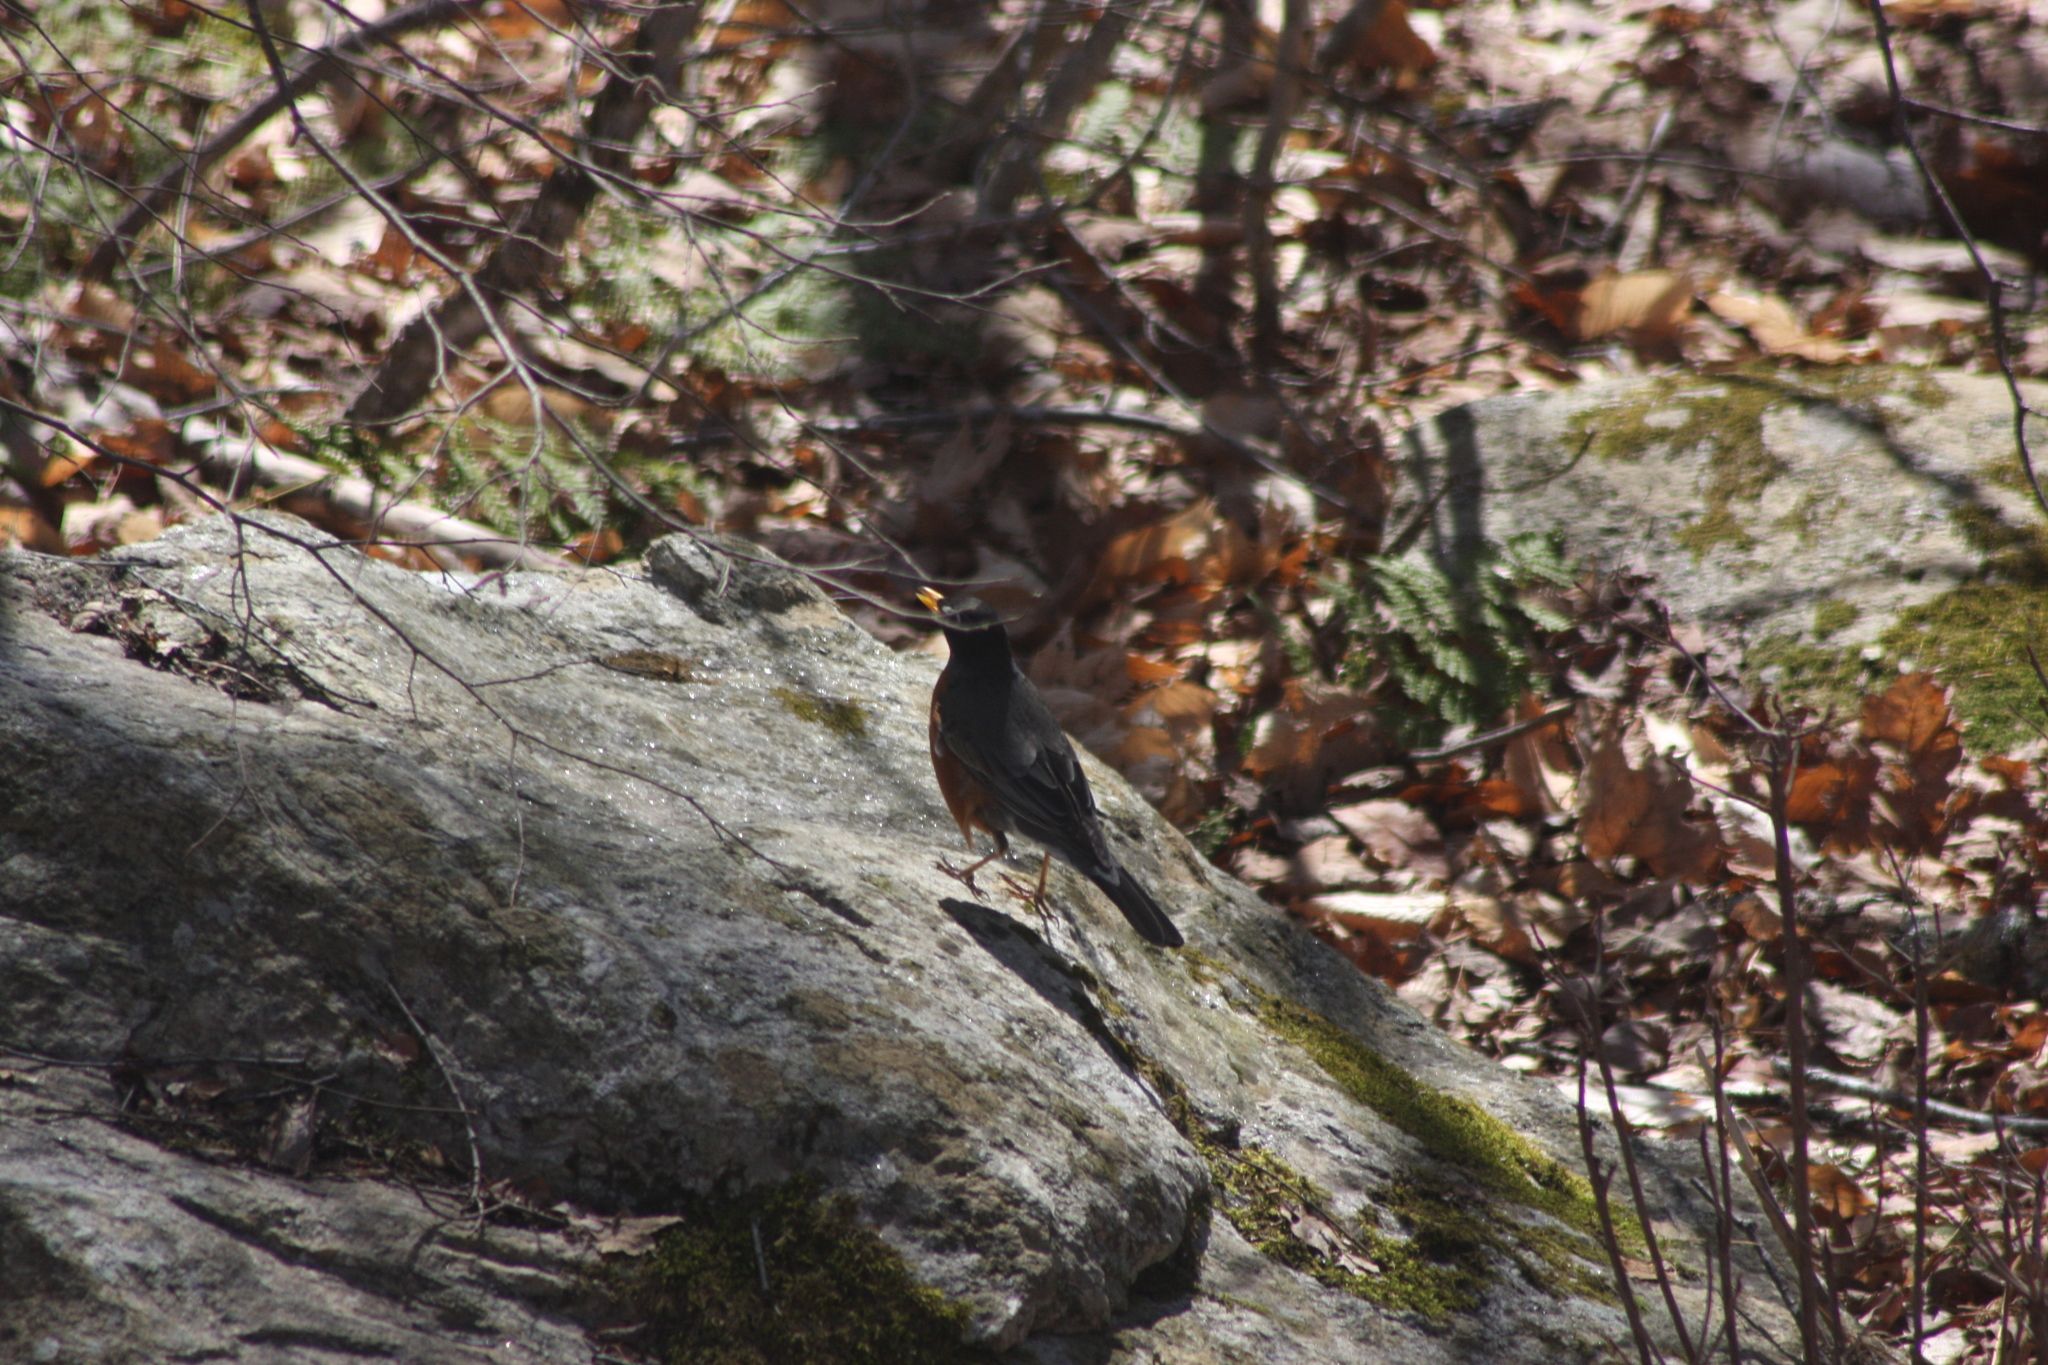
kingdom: Animalia
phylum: Chordata
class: Aves
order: Passeriformes
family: Turdidae
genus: Turdus
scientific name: Turdus migratorius
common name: American robin
